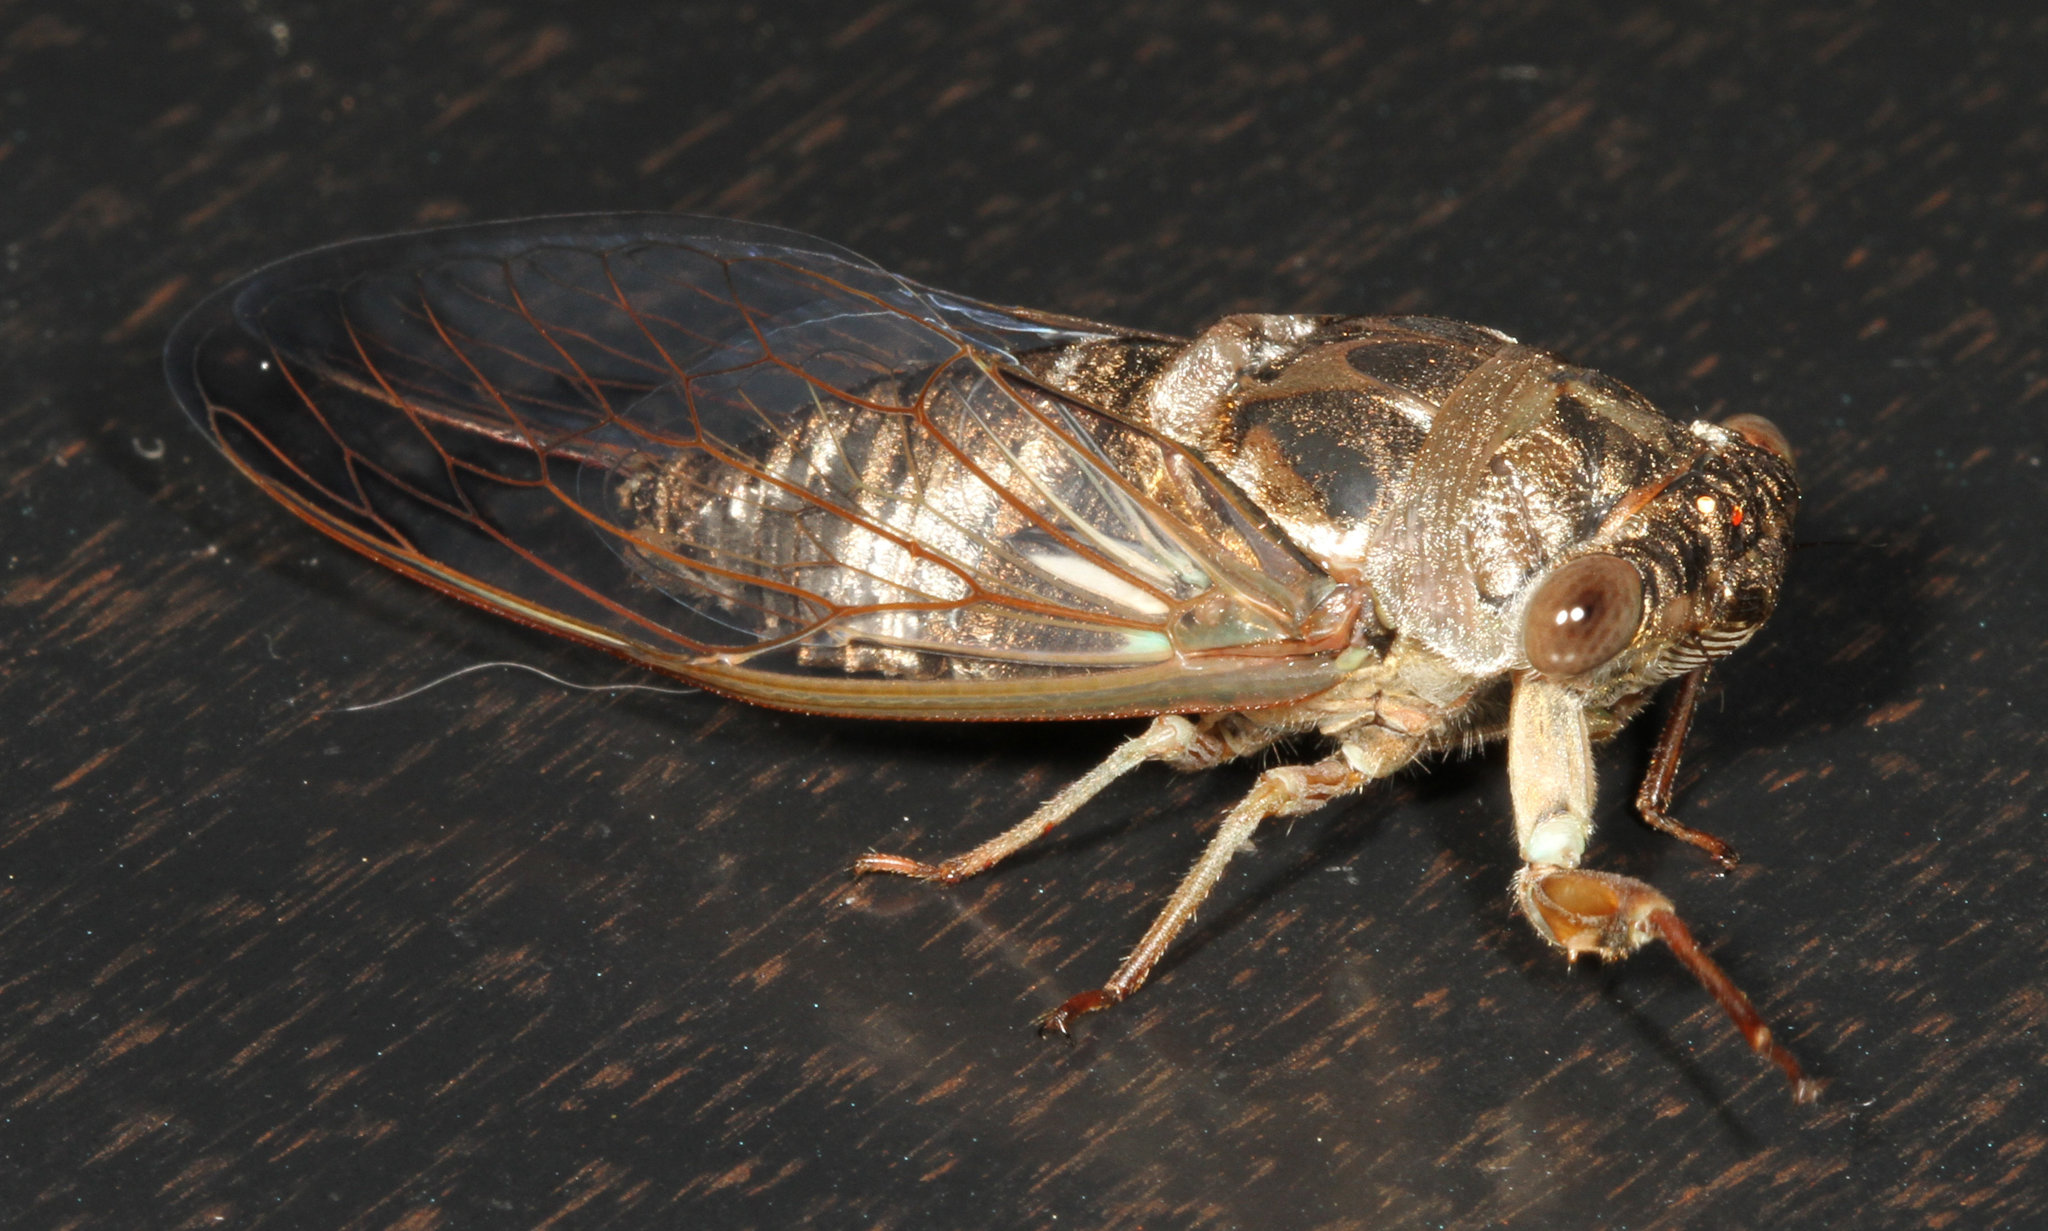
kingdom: Animalia
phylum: Arthropoda
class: Insecta
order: Hemiptera
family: Cicadidae
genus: Neotibicen
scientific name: Neotibicen davisi
